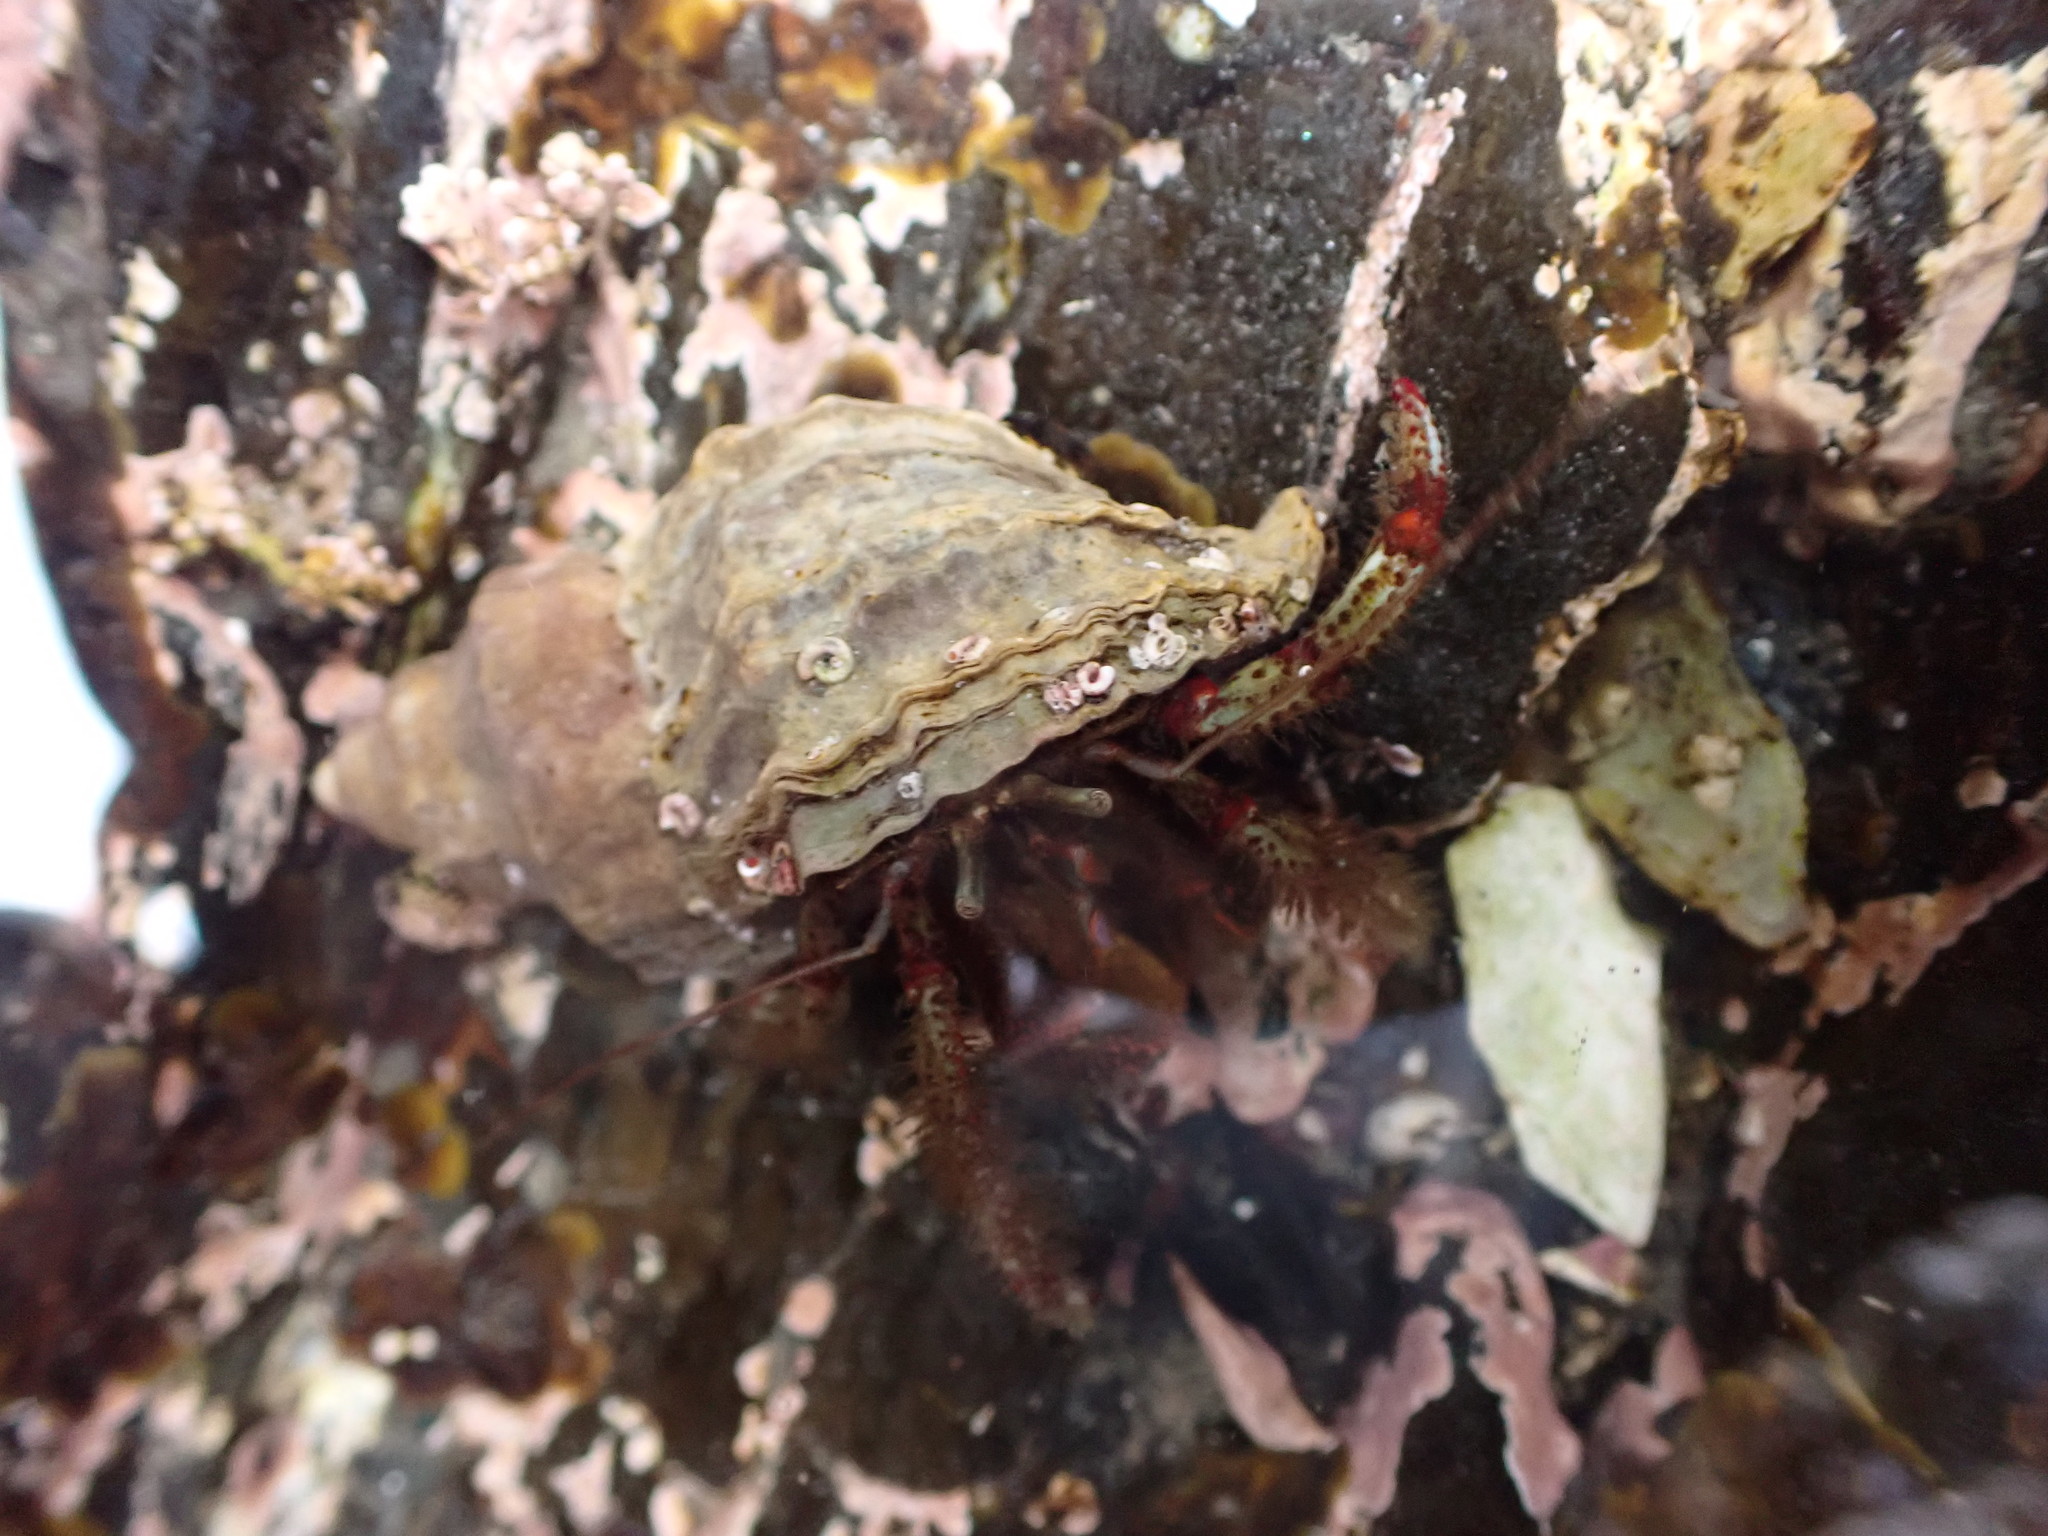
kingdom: Animalia
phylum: Arthropoda
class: Malacostraca
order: Decapoda
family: Paguridae
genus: Pagurus
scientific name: Pagurus beringanus
